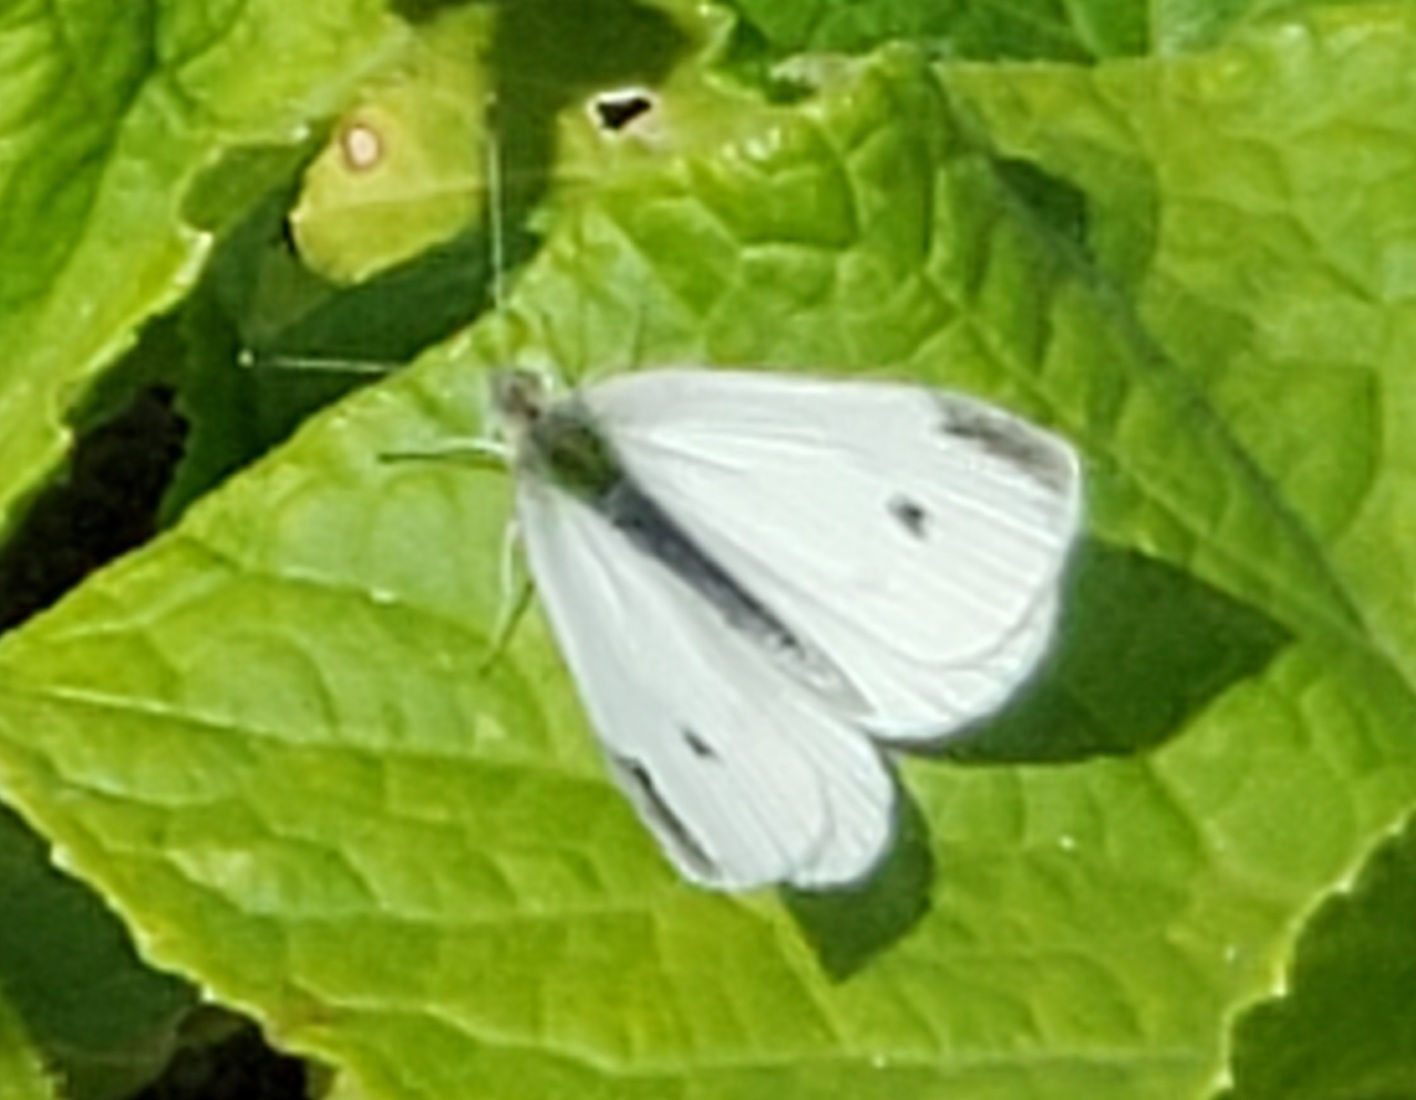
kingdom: Animalia
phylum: Arthropoda
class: Insecta
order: Lepidoptera
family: Pieridae
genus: Pieris
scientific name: Pieris rapae
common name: Small white
